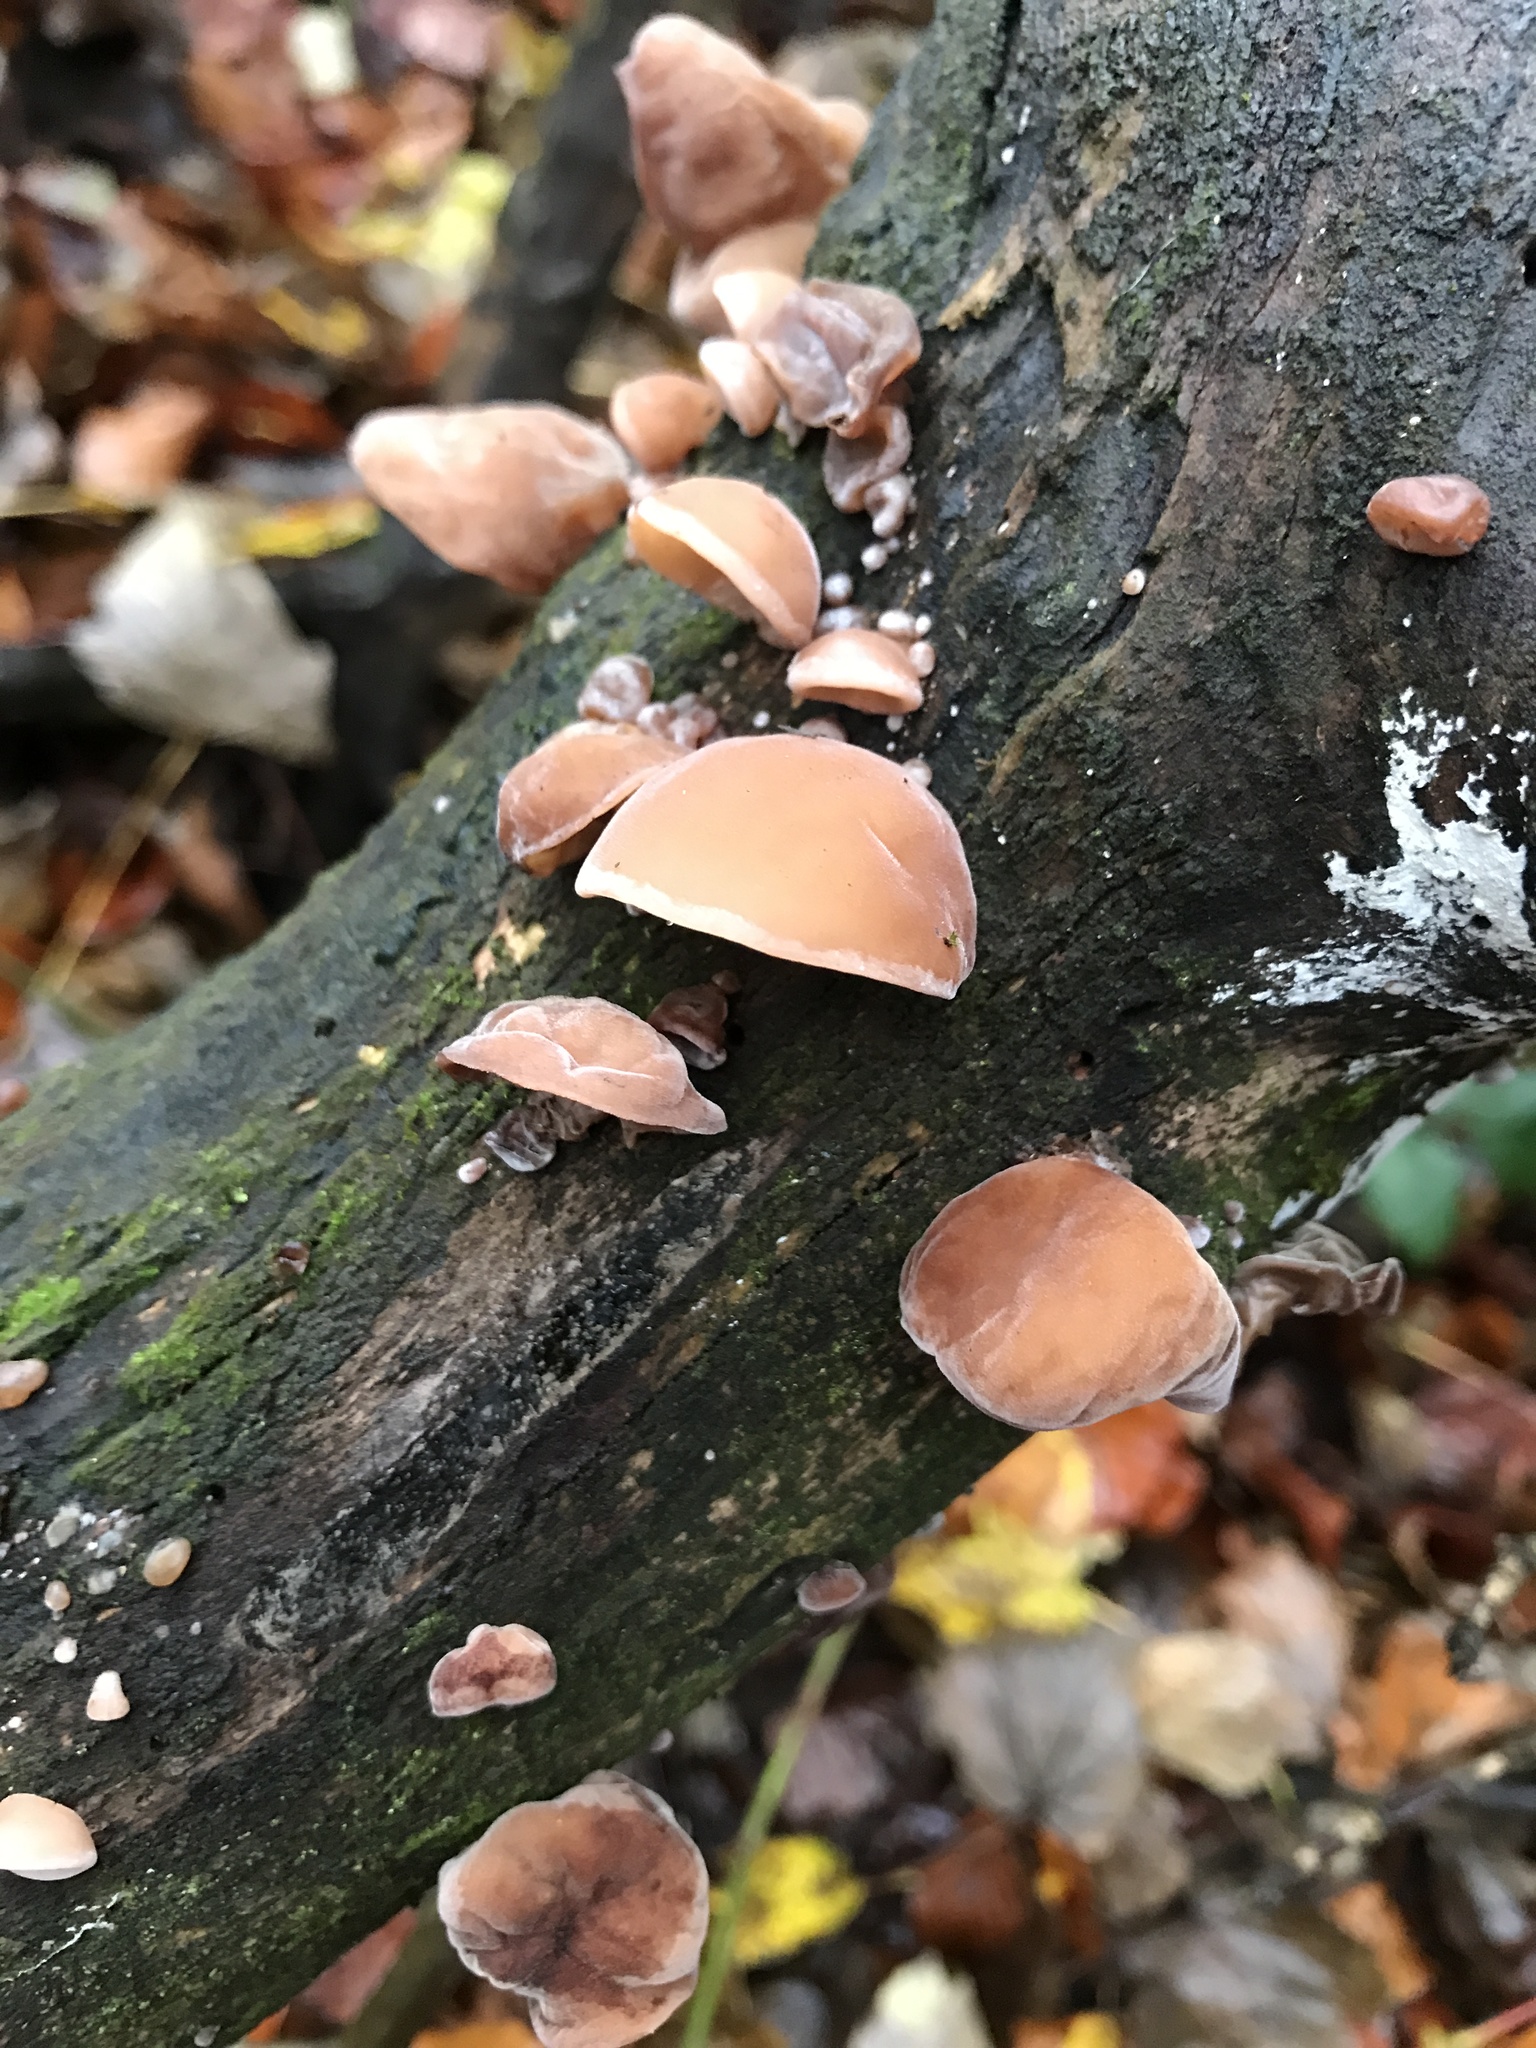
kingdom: Fungi
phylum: Basidiomycota
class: Agaricomycetes
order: Auriculariales
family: Auriculariaceae
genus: Auricularia
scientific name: Auricularia auricula-judae
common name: Jelly ear
